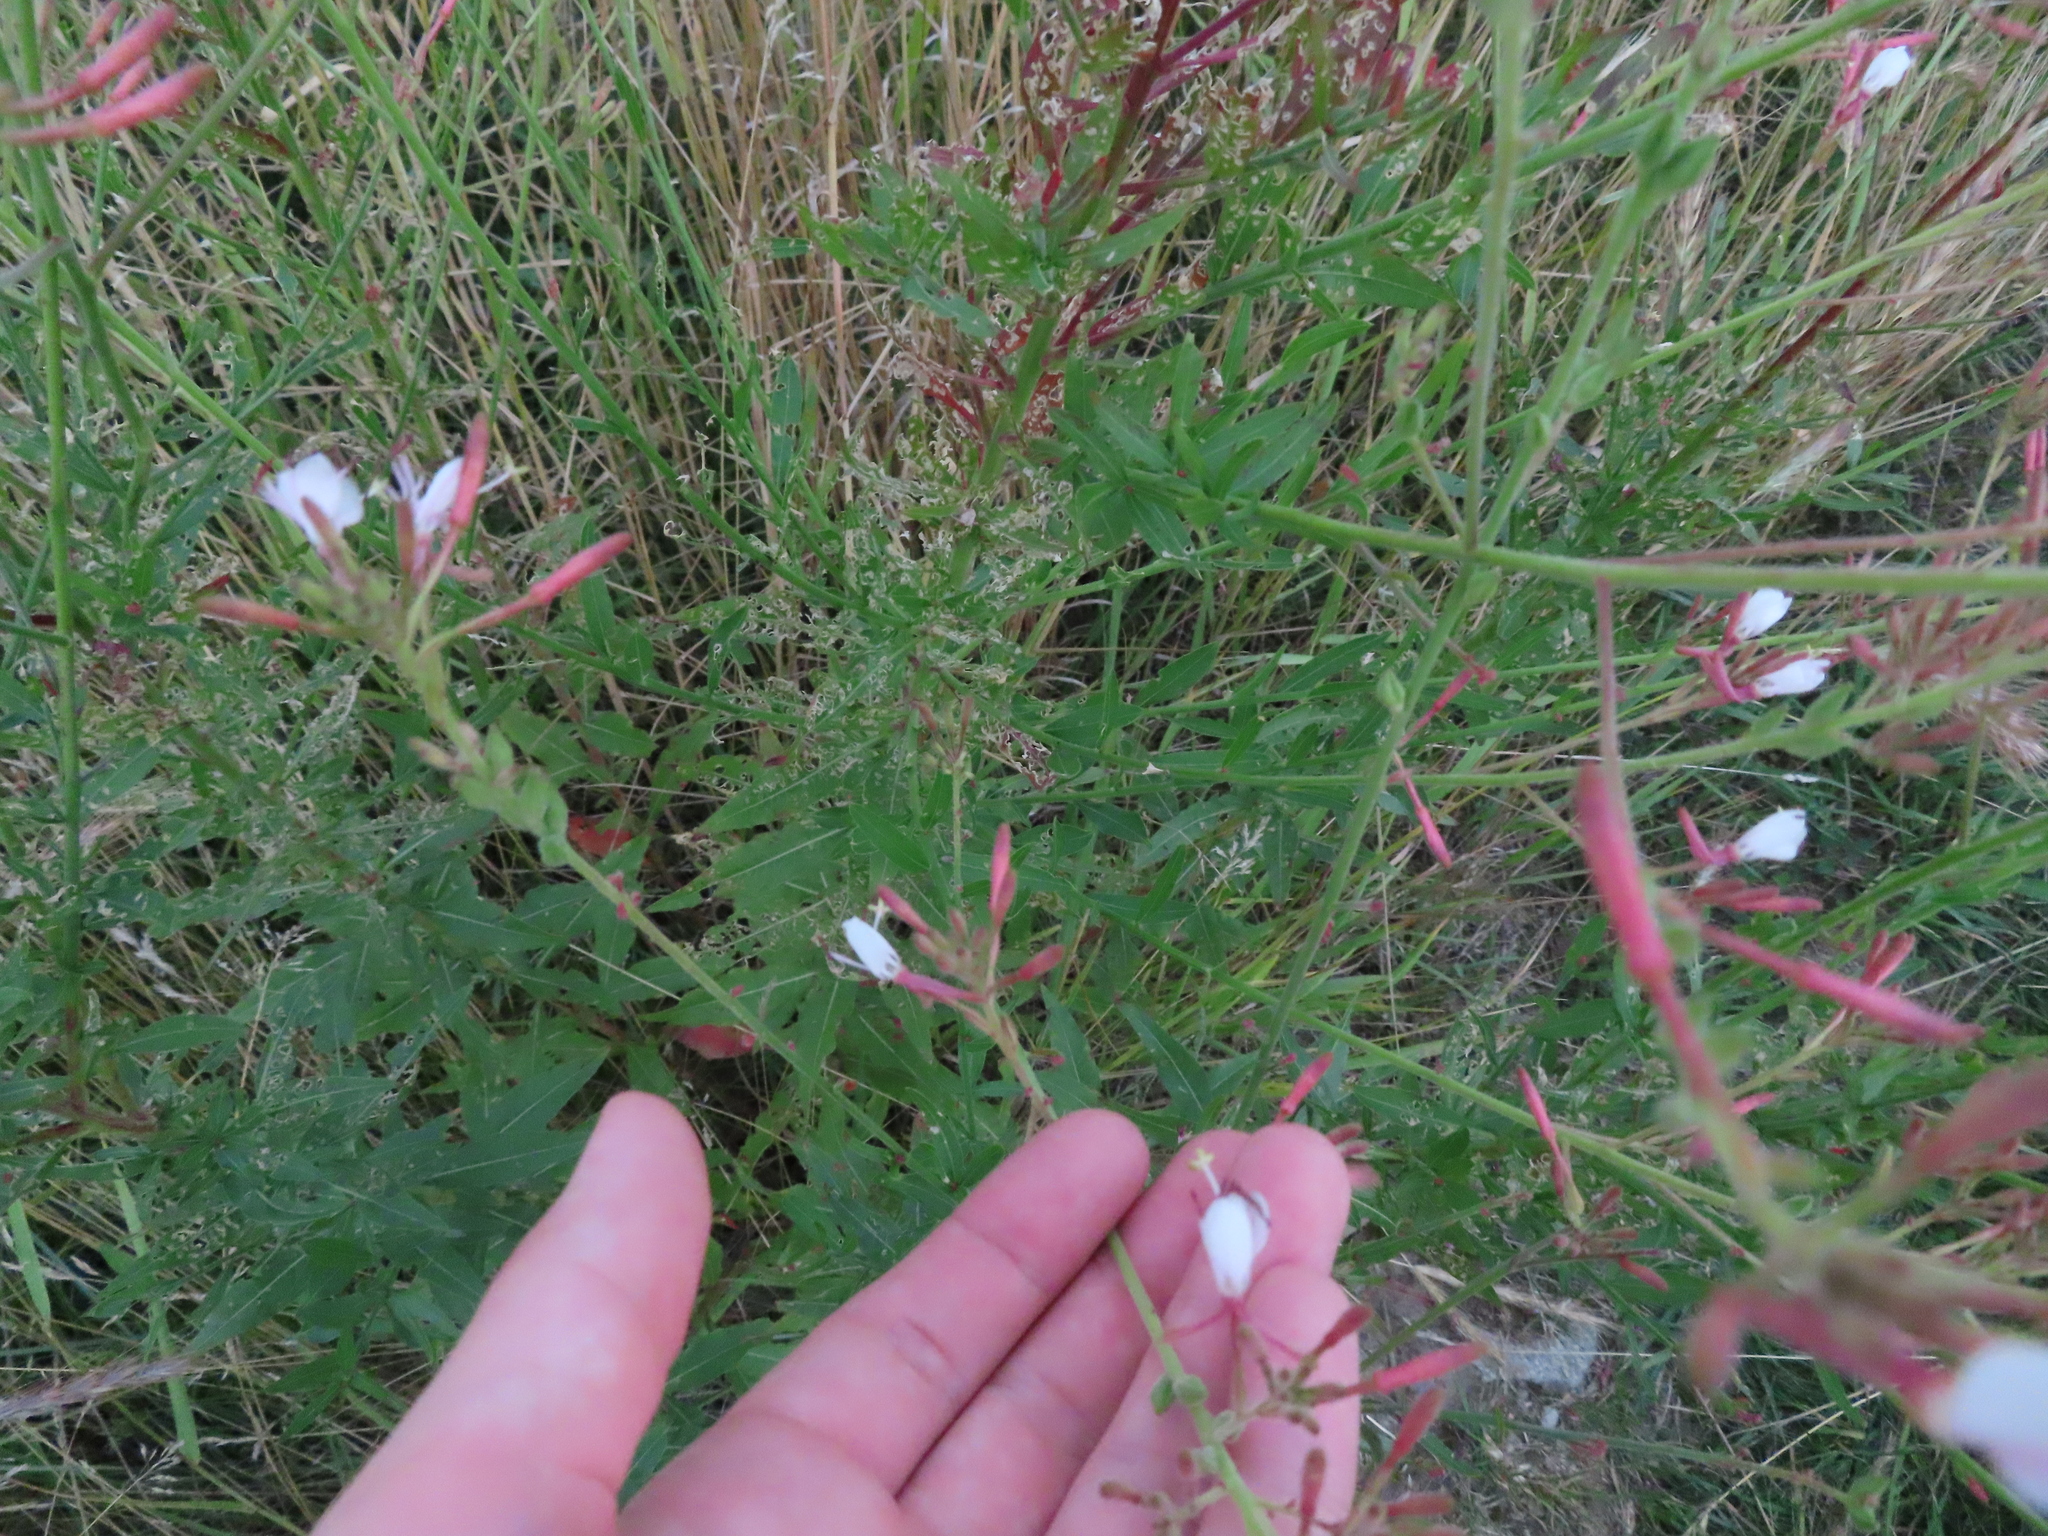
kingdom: Plantae
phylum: Tracheophyta
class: Magnoliopsida
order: Myrtales
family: Onagraceae
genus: Oenothera
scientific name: Oenothera gaura
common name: Biennial beeblossom
